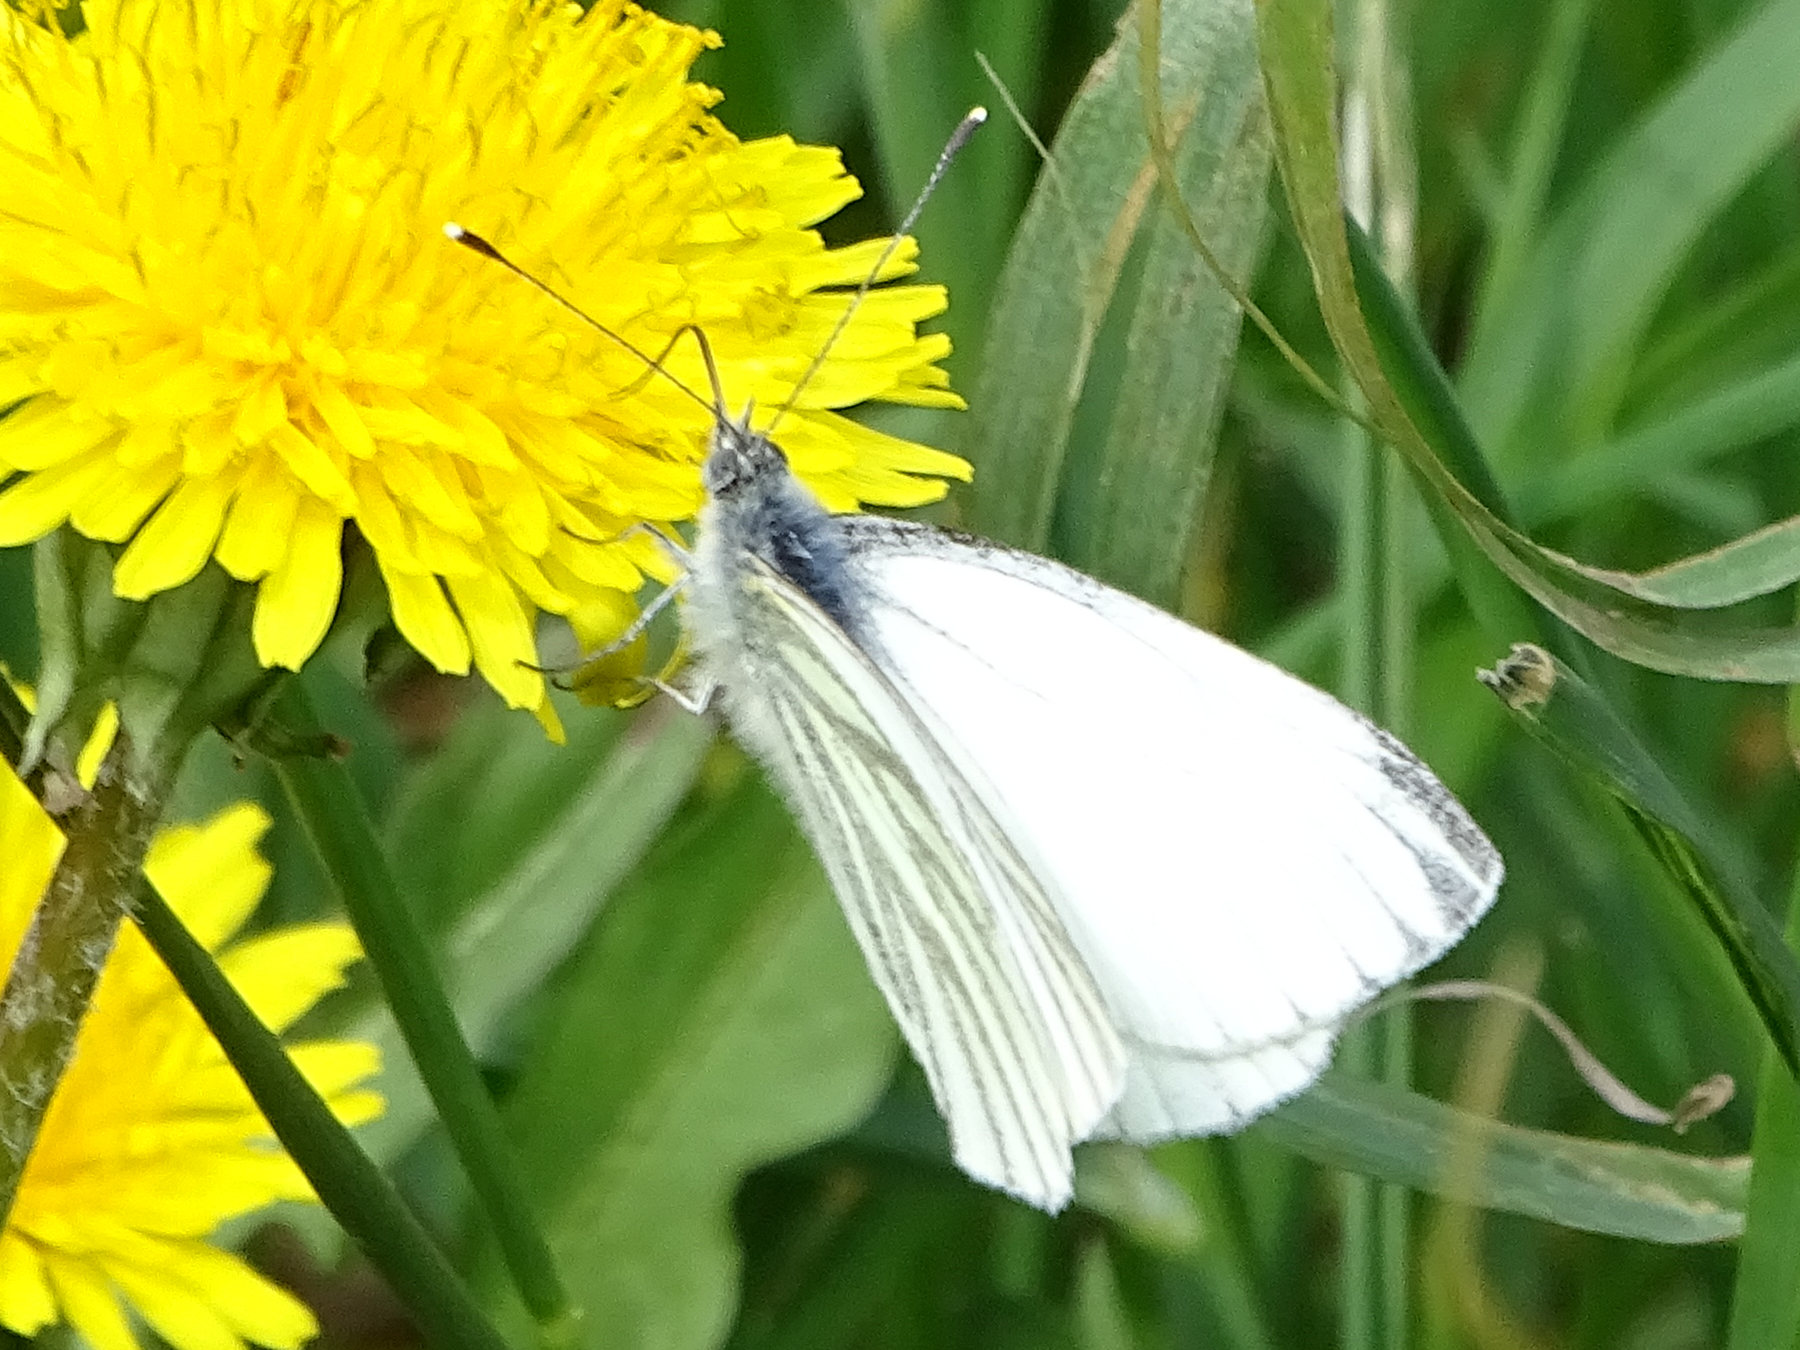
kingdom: Animalia
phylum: Arthropoda
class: Insecta
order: Lepidoptera
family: Pieridae
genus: Pieris
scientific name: Pieris napi
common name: Green-veined white
